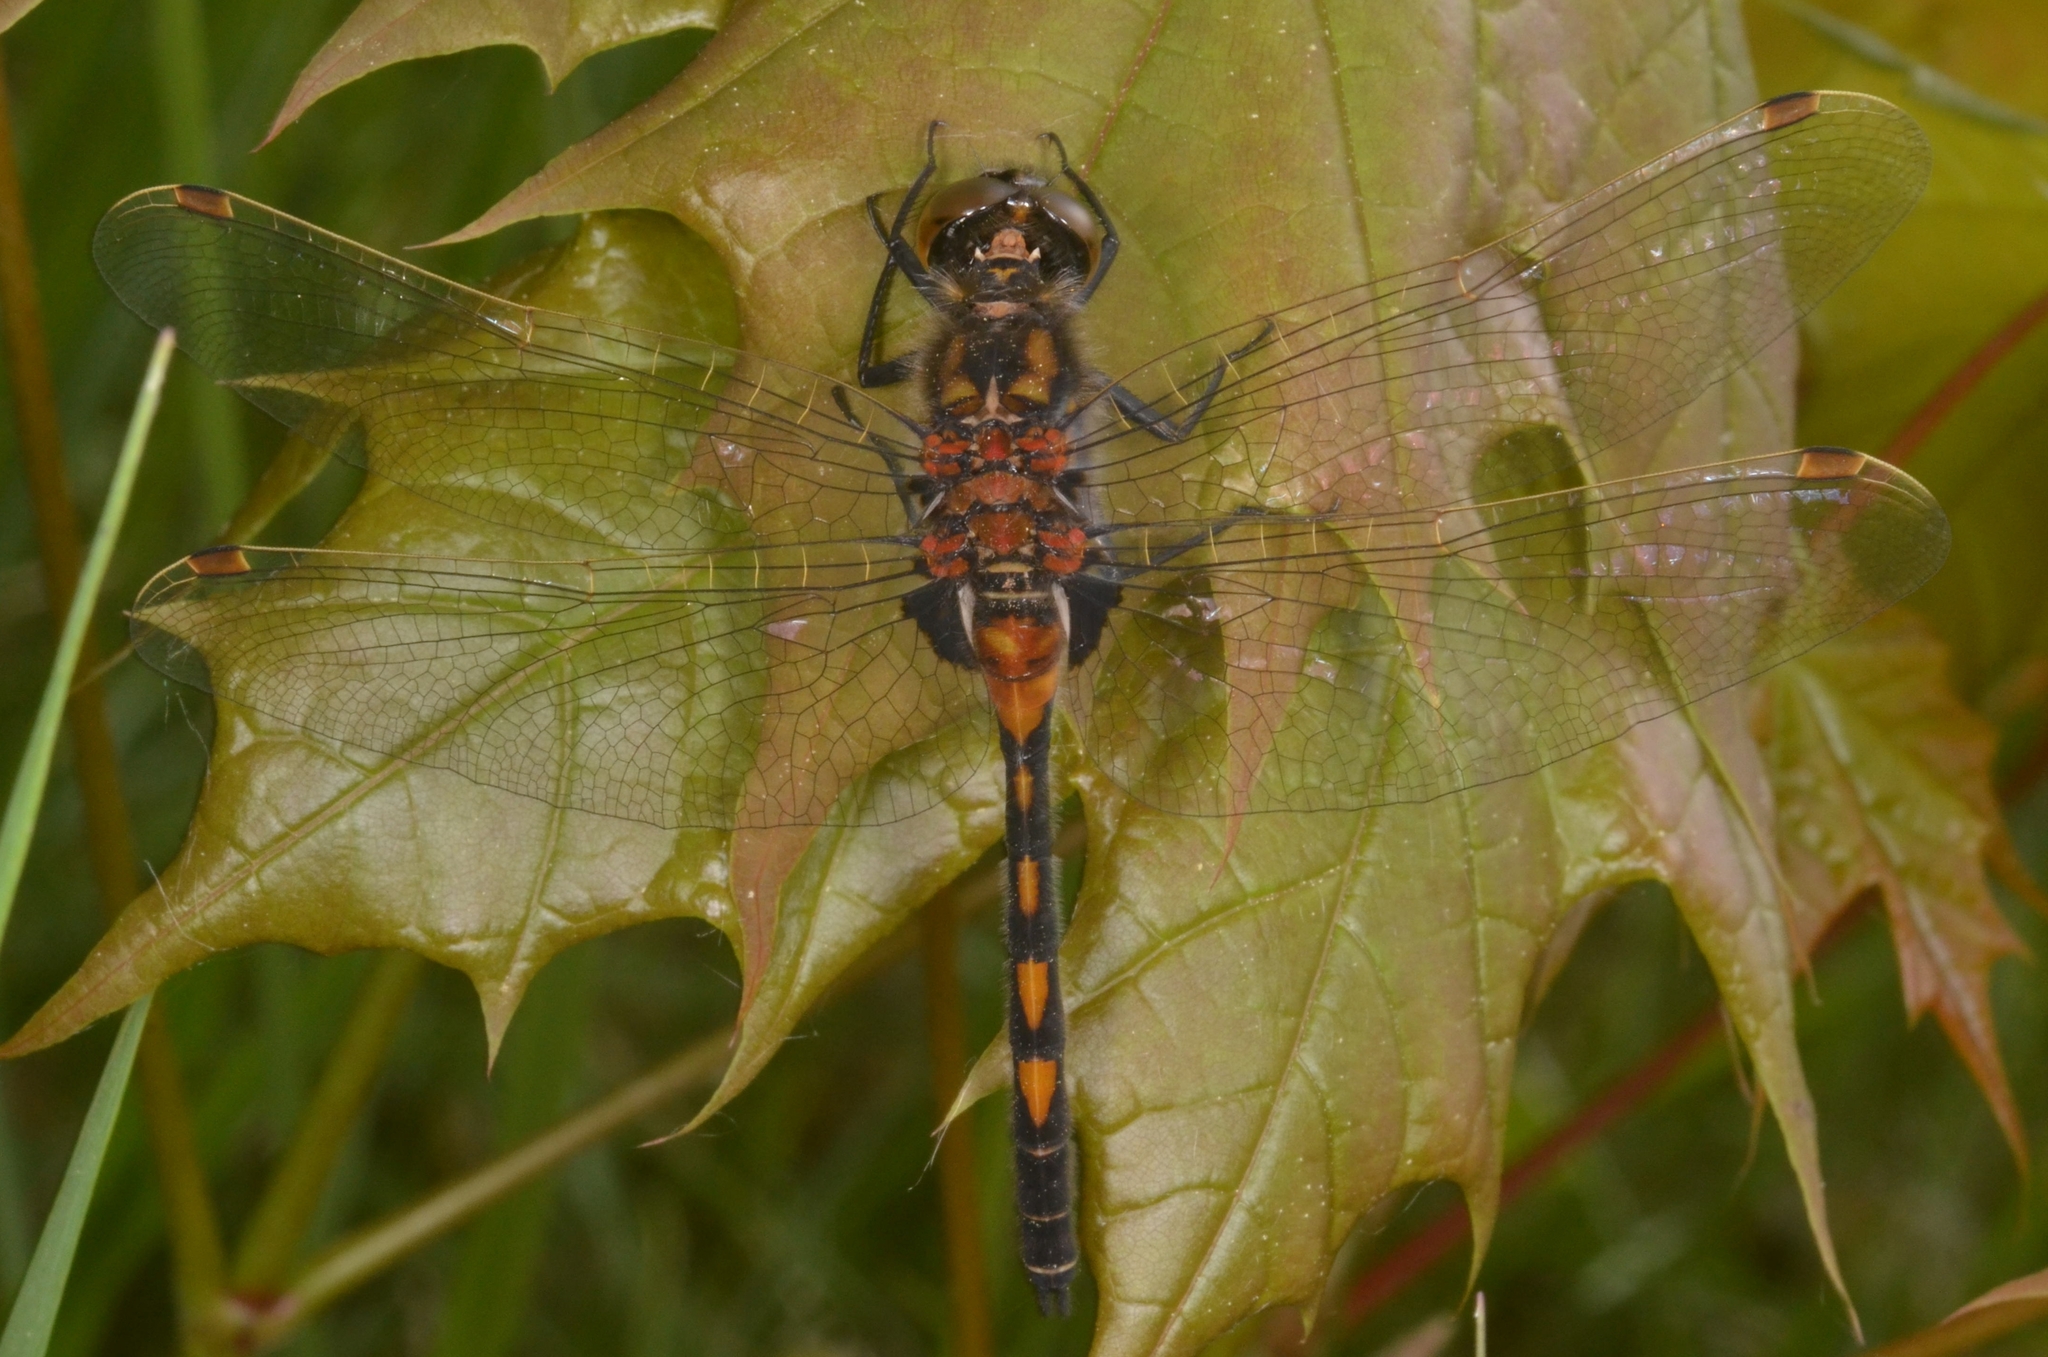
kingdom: Animalia
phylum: Arthropoda
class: Insecta
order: Odonata
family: Libellulidae
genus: Leucorrhinia
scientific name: Leucorrhinia rubicunda
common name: Ruby whiteface
